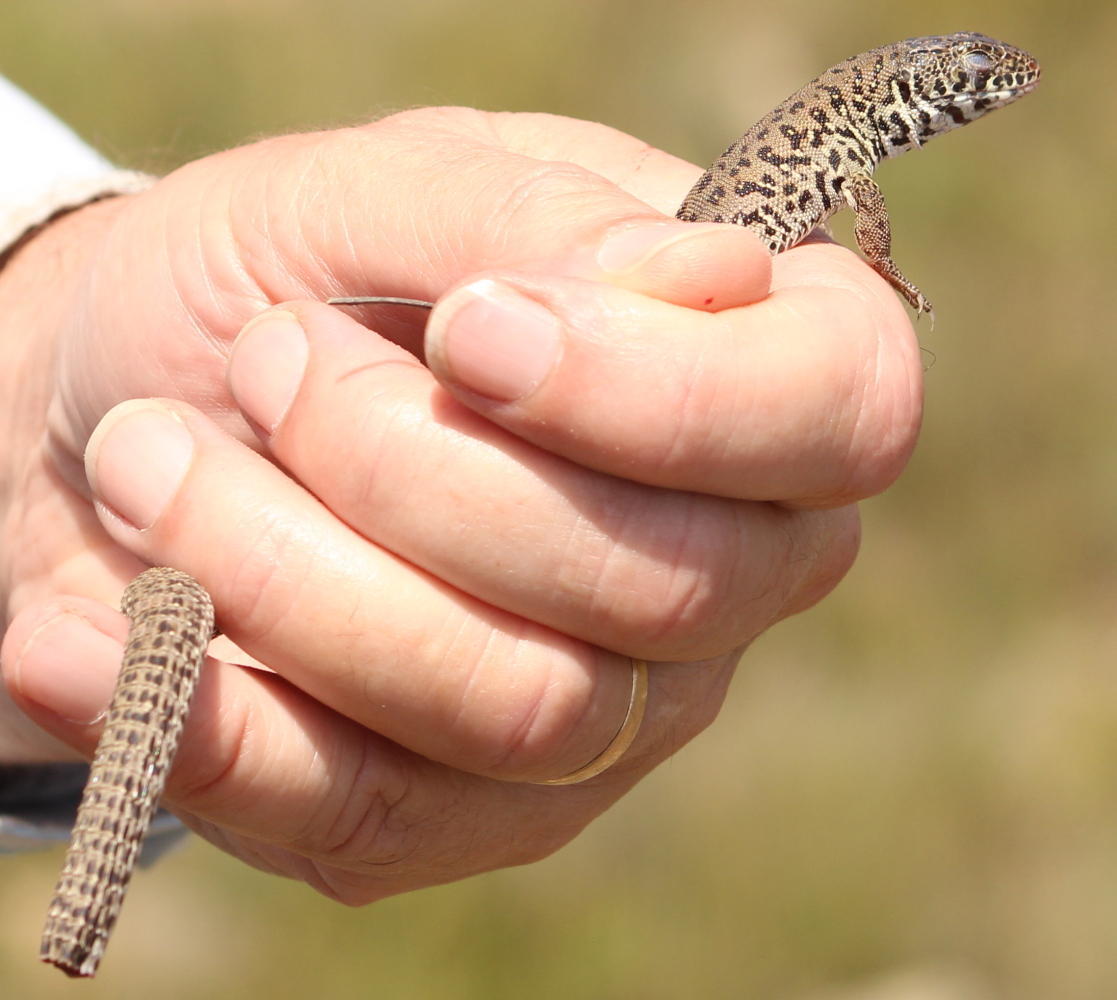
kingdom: Animalia
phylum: Chordata
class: Squamata
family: Lacertidae
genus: Nucras
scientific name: Nucras lalandii
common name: Delalande's sandveld lizard
